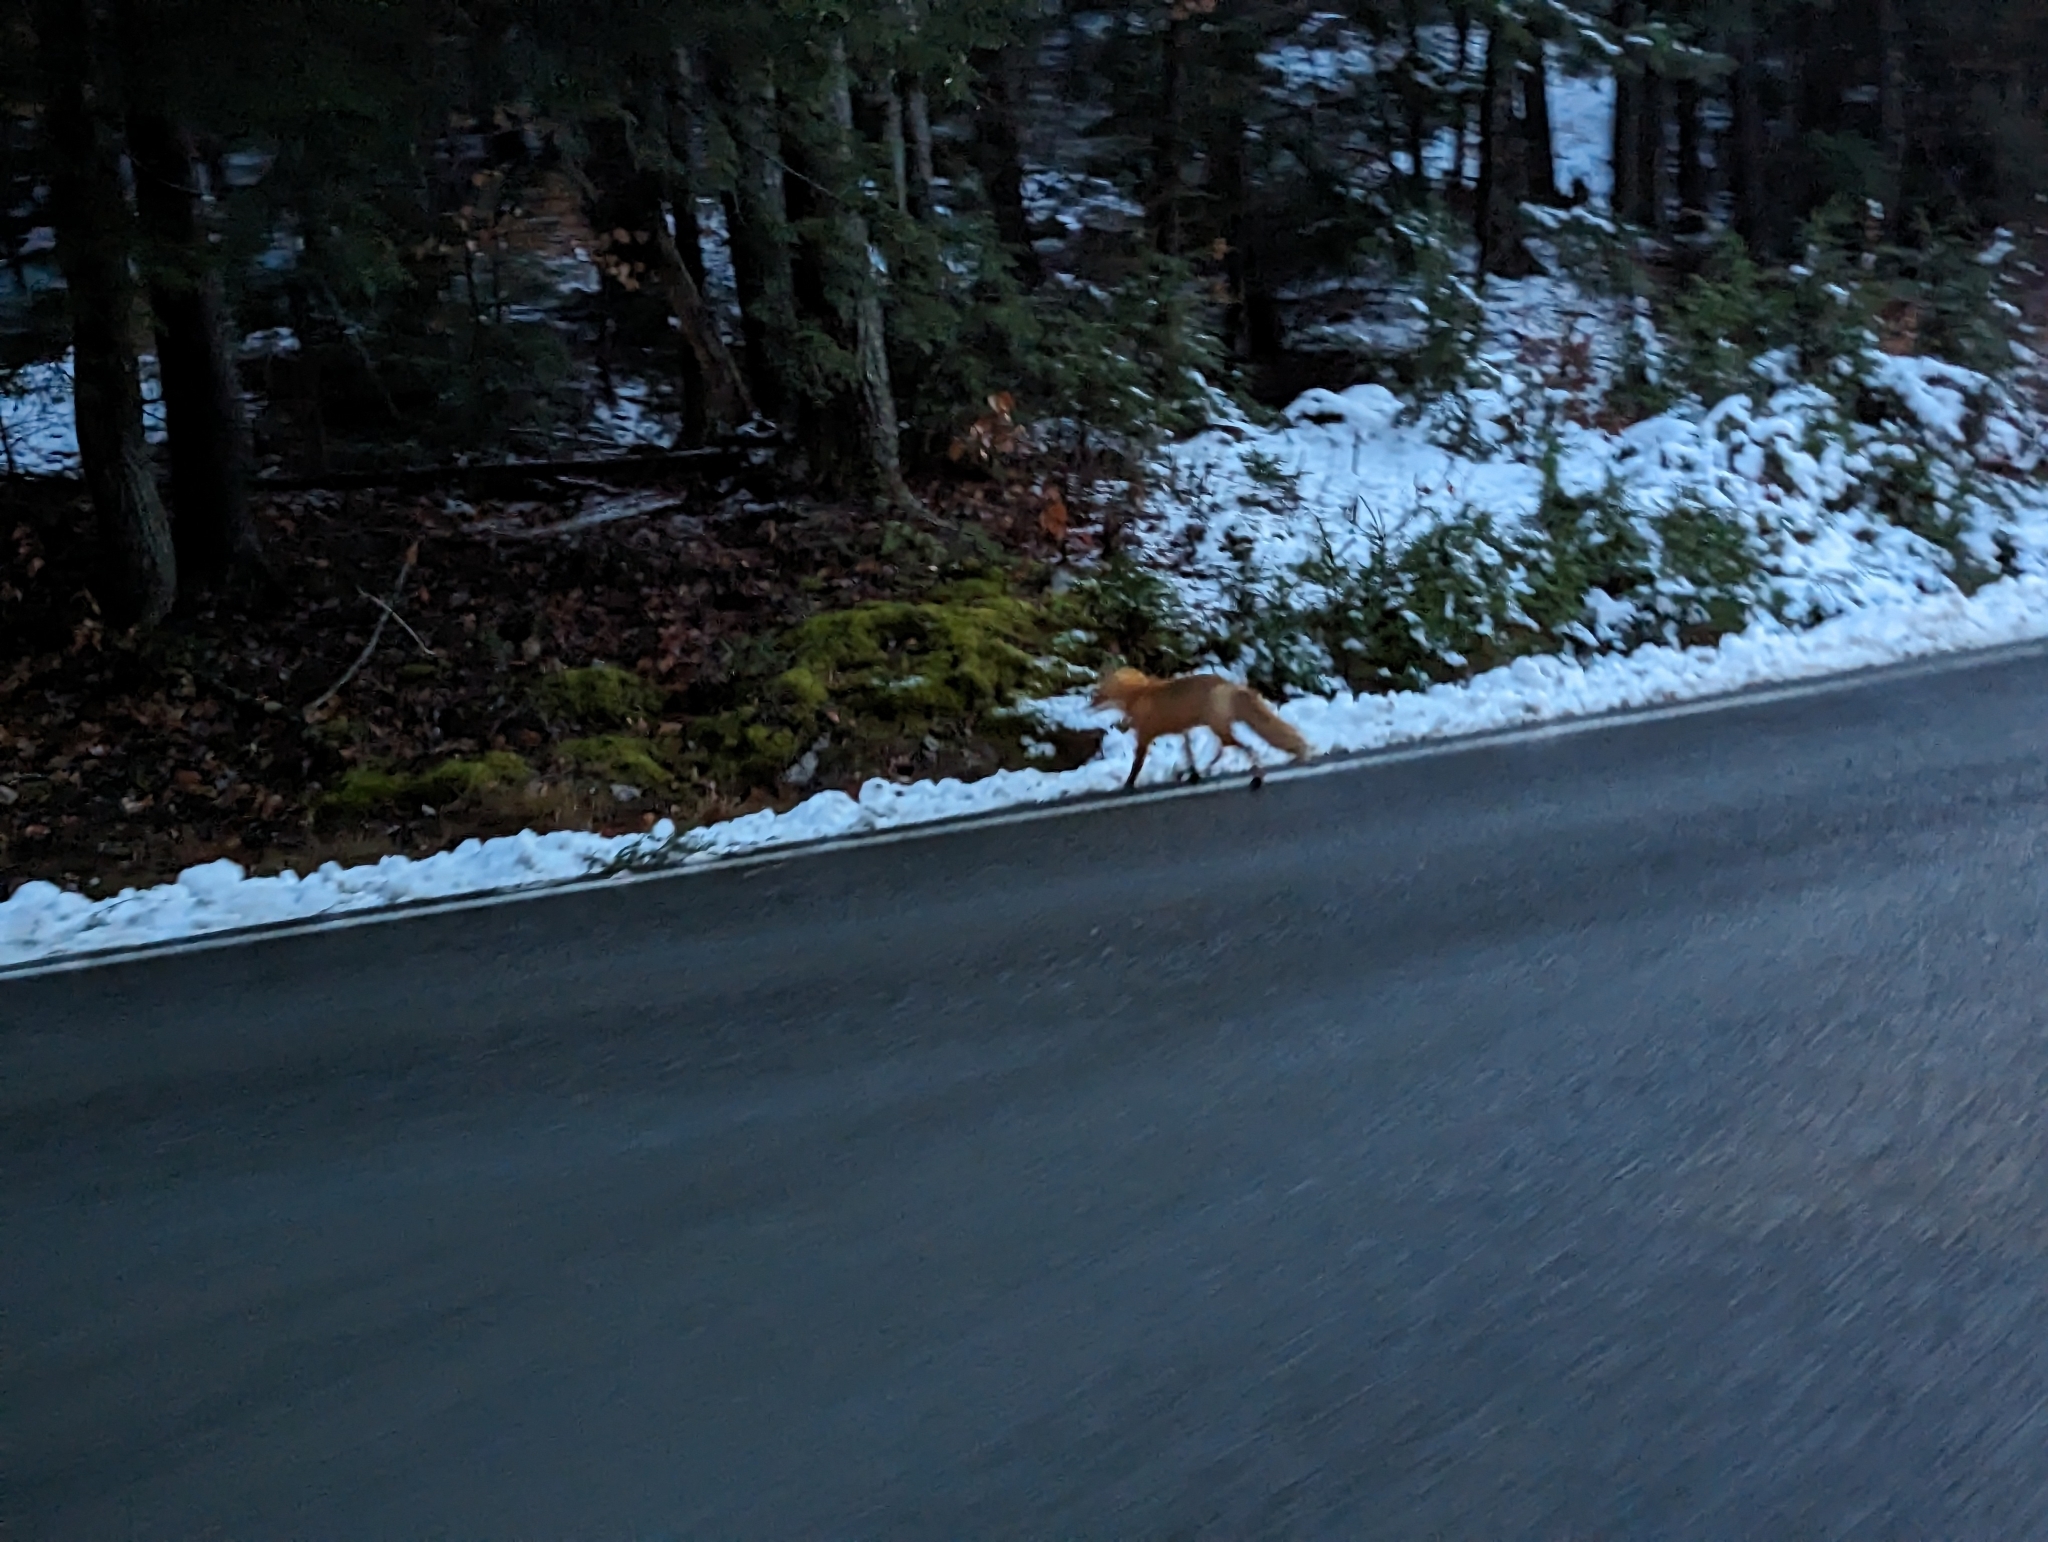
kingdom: Animalia
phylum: Chordata
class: Mammalia
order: Carnivora
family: Canidae
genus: Vulpes
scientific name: Vulpes vulpes
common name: Red fox
